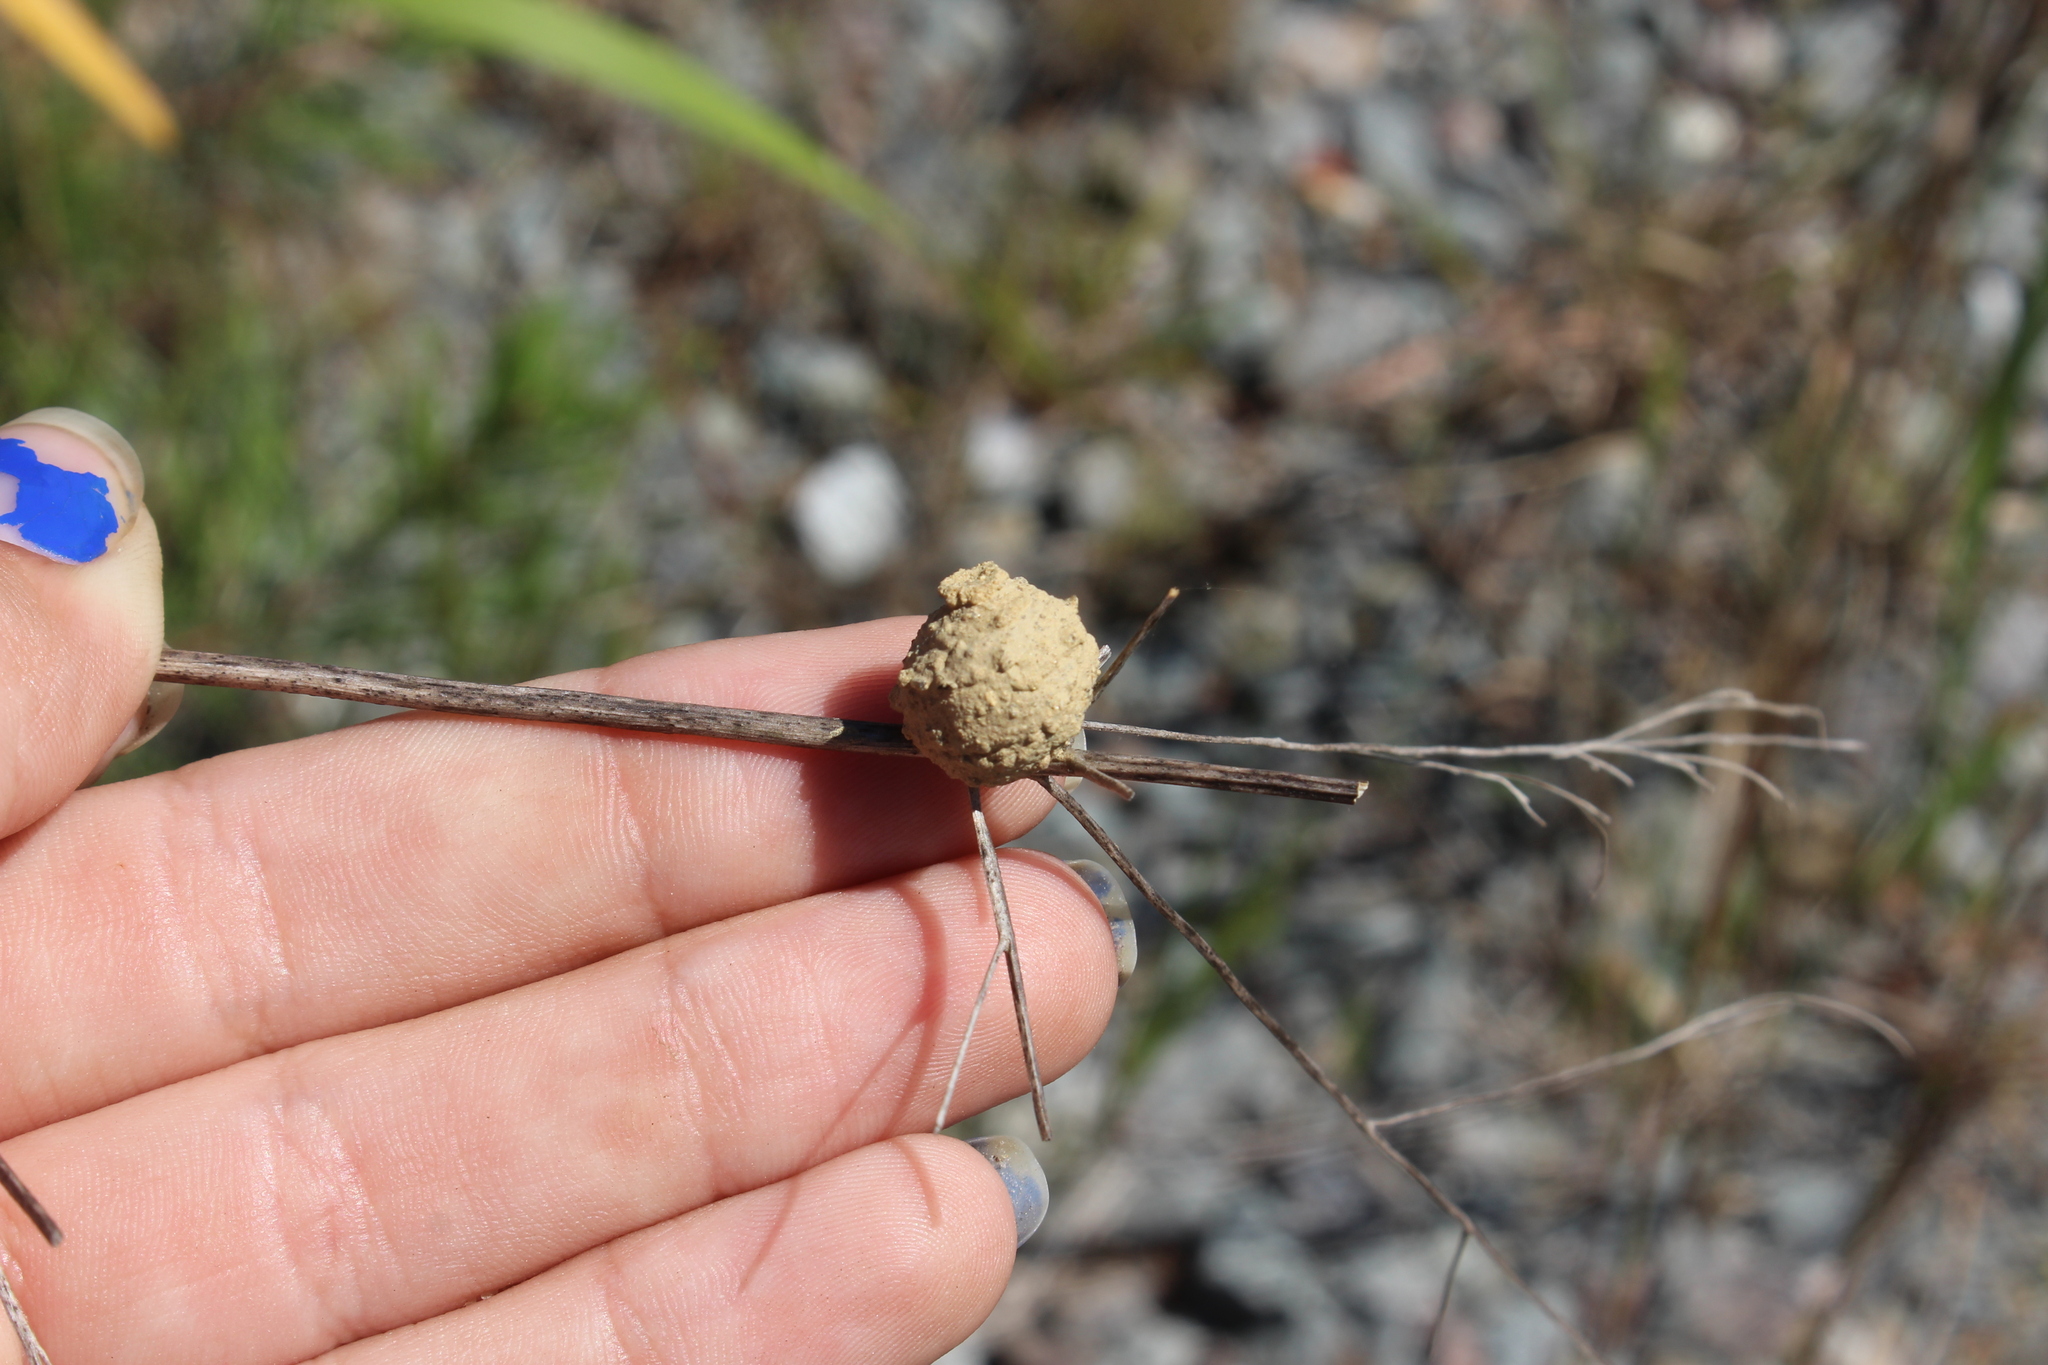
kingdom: Animalia
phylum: Arthropoda
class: Insecta
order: Hymenoptera
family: Vespidae
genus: Eumenes
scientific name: Eumenes
